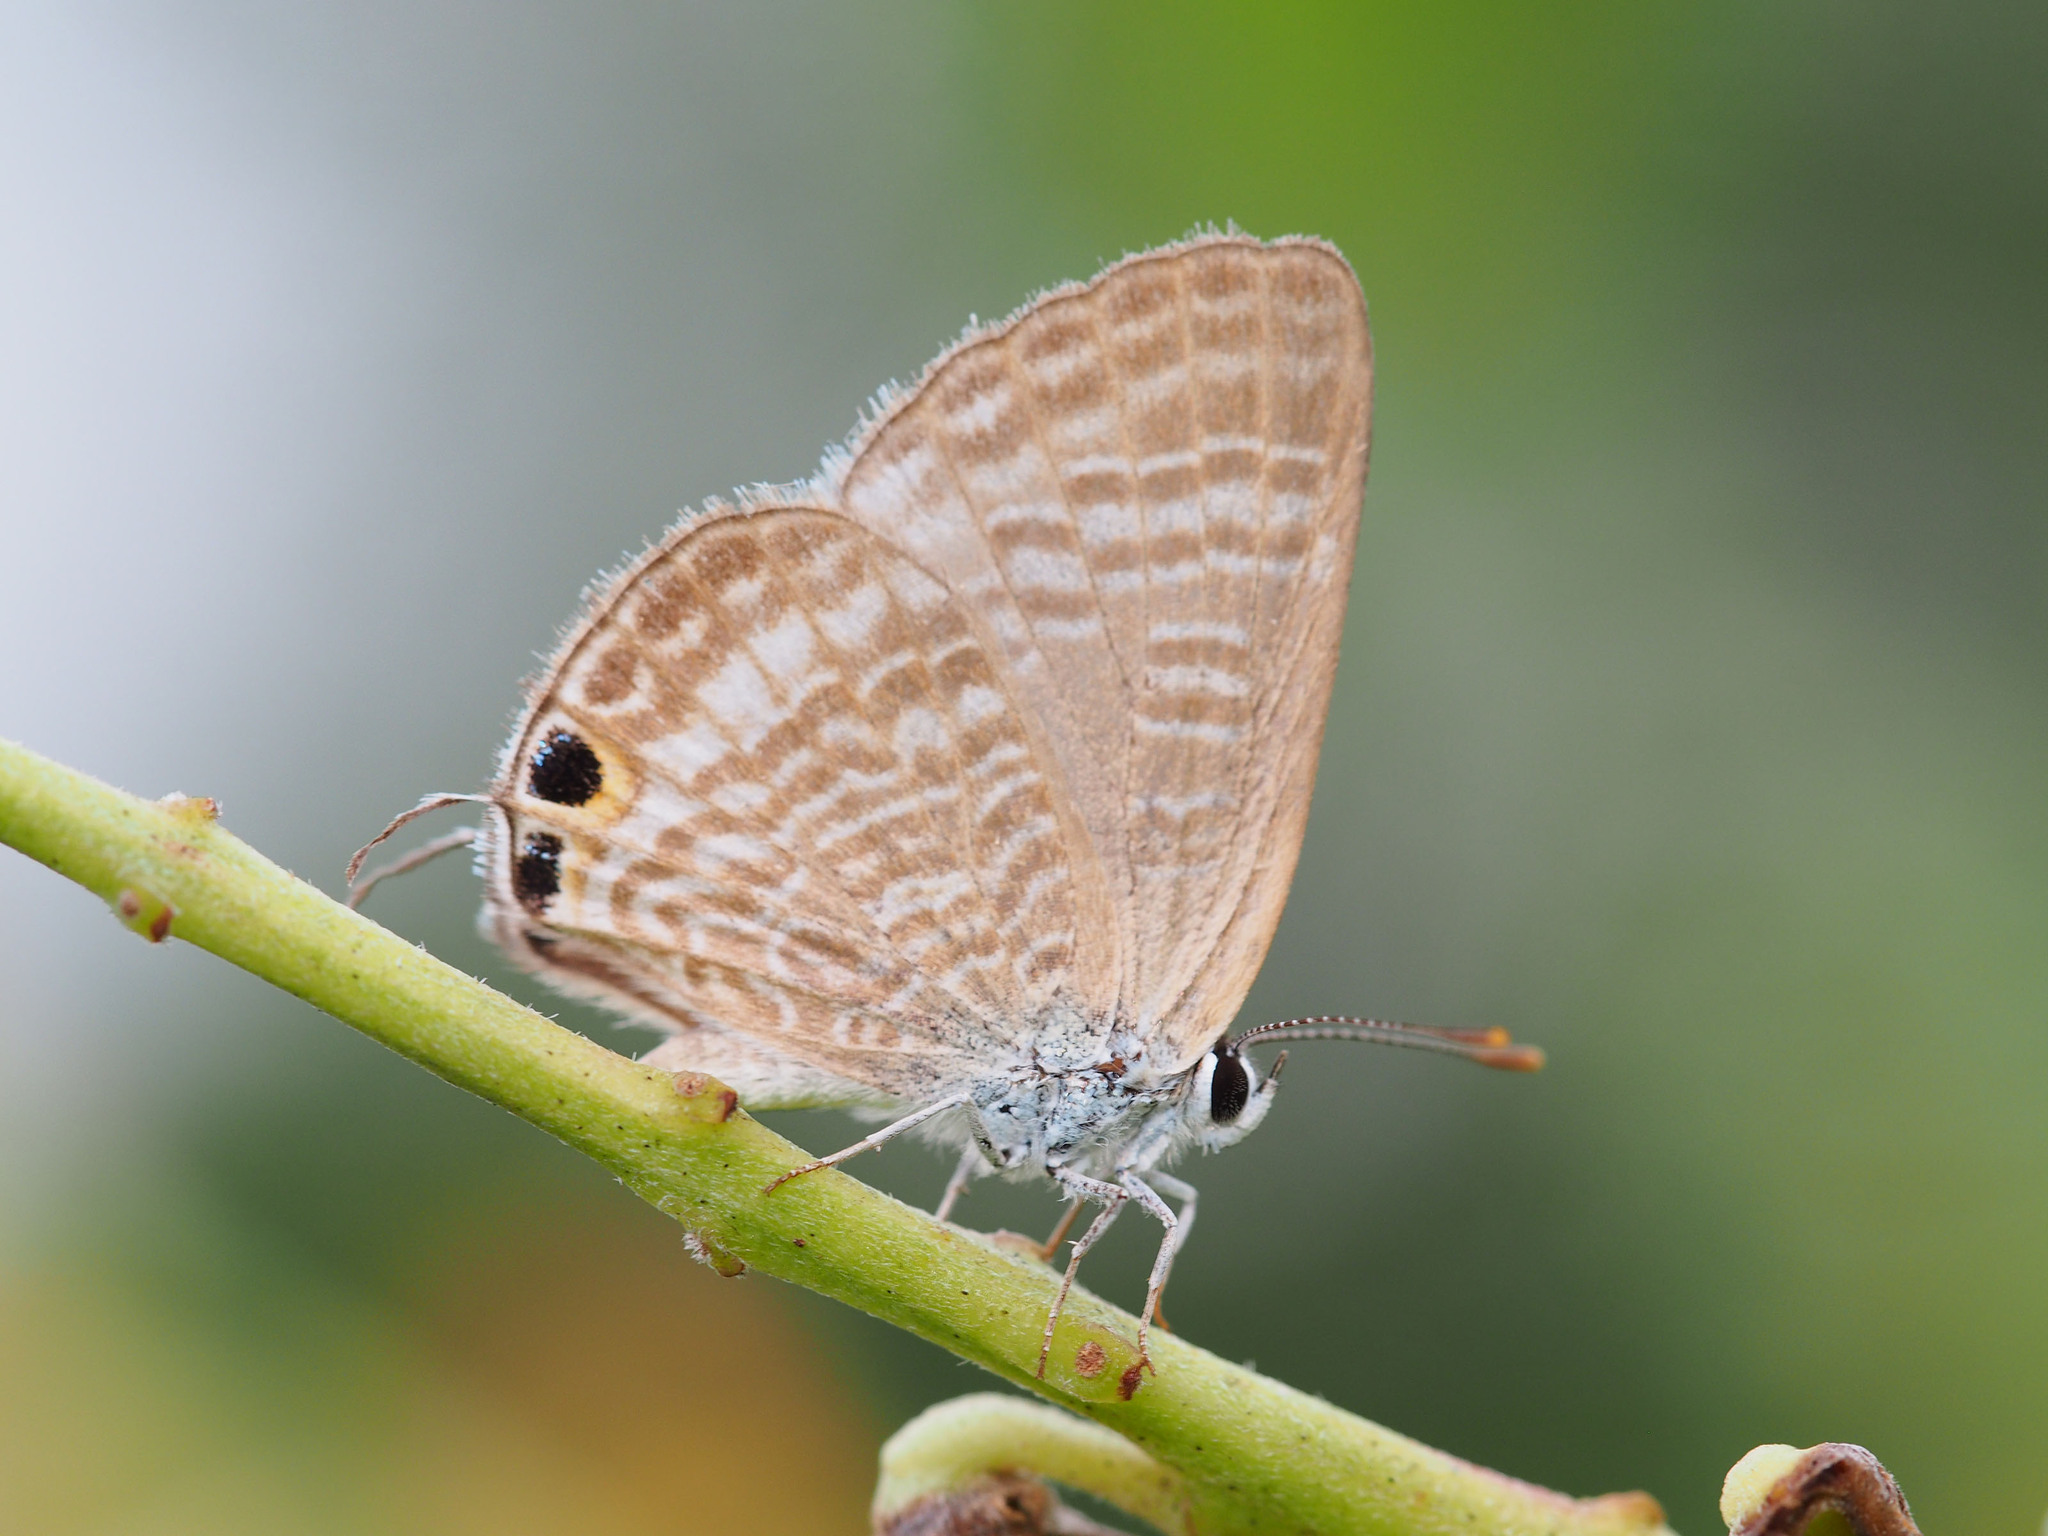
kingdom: Animalia
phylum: Arthropoda
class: Insecta
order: Lepidoptera
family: Lycaenidae
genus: Lampides
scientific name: Lampides boeticus
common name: Long-tailed blue
